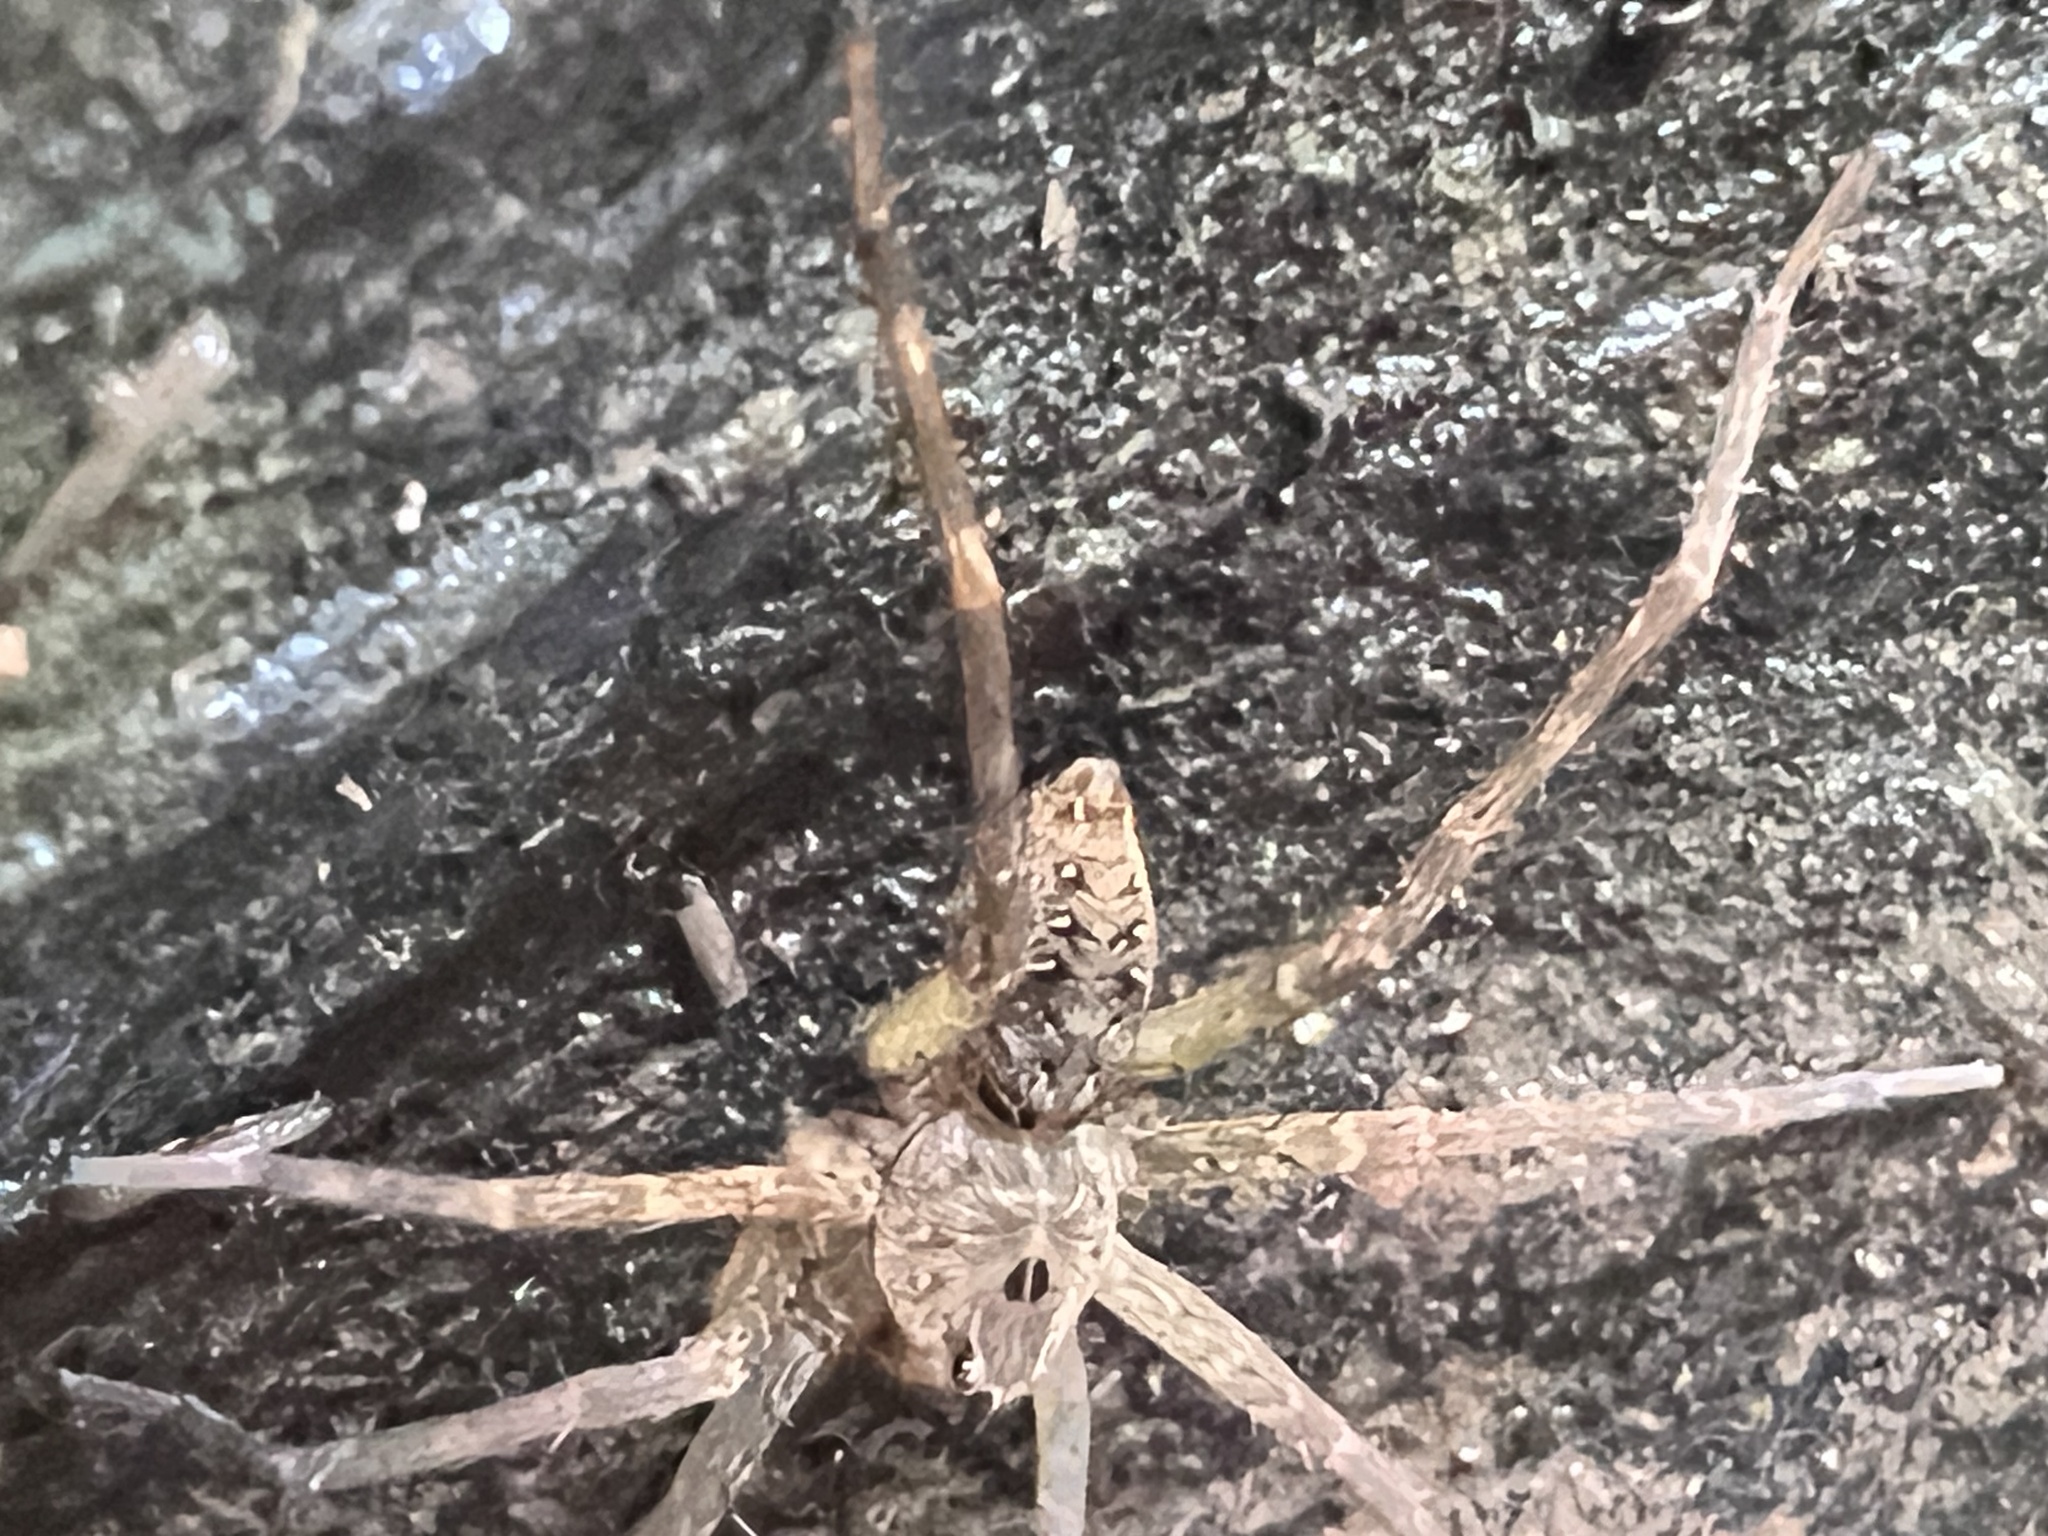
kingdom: Animalia
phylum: Arthropoda
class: Arachnida
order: Araneae
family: Pisauridae
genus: Dolomedes
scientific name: Dolomedes vittatus
